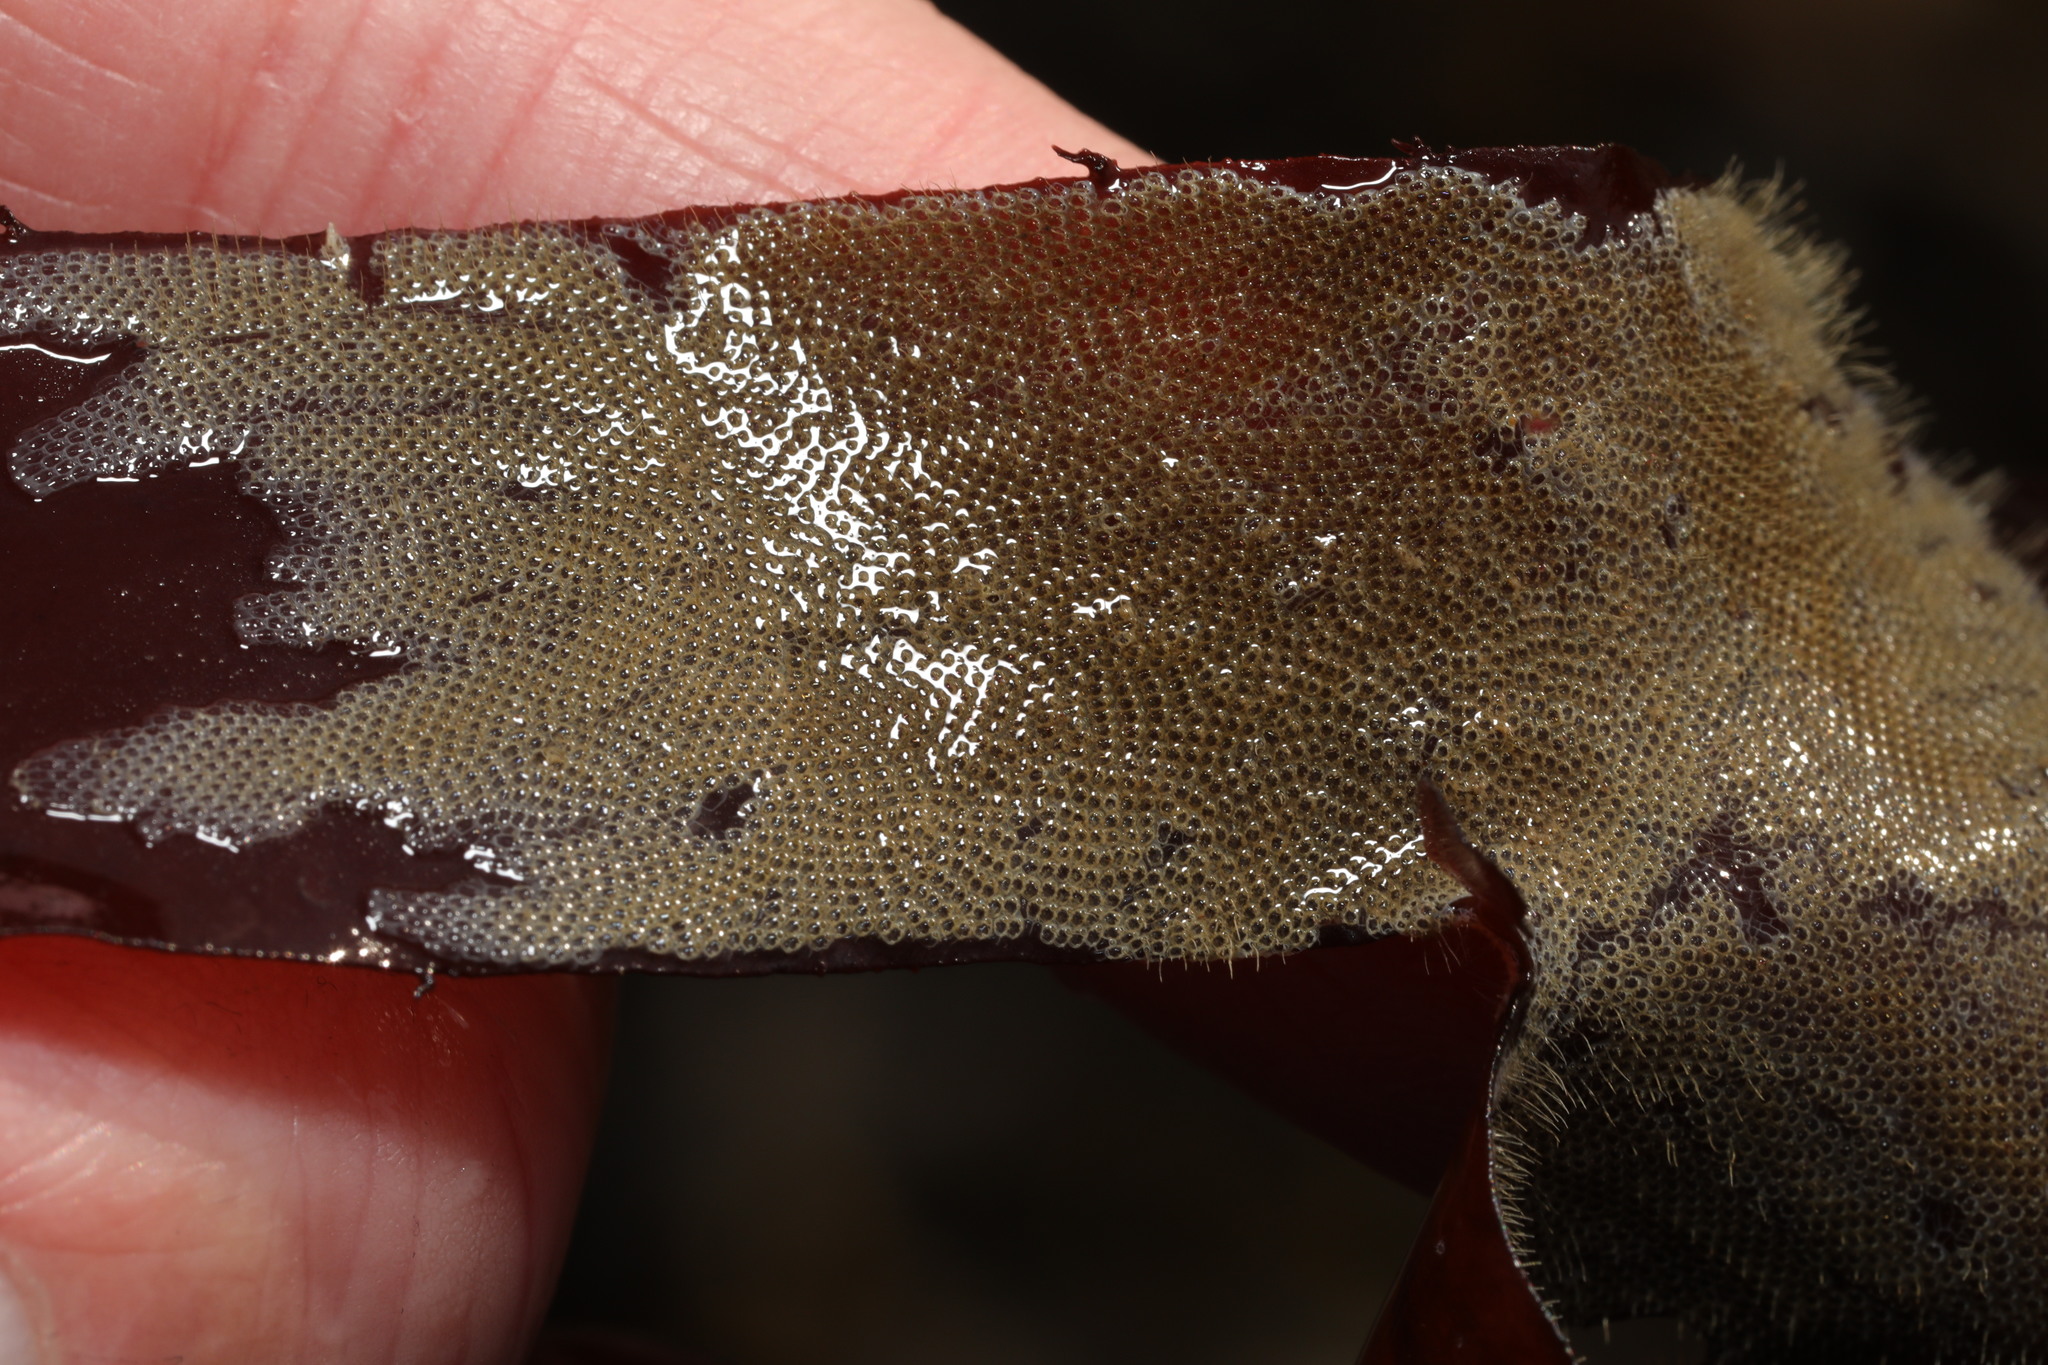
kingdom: Animalia
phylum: Bryozoa
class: Gymnolaemata
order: Cheilostomatida
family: Electridae
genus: Electra
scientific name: Electra pilosa
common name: Hairy sea-mat
